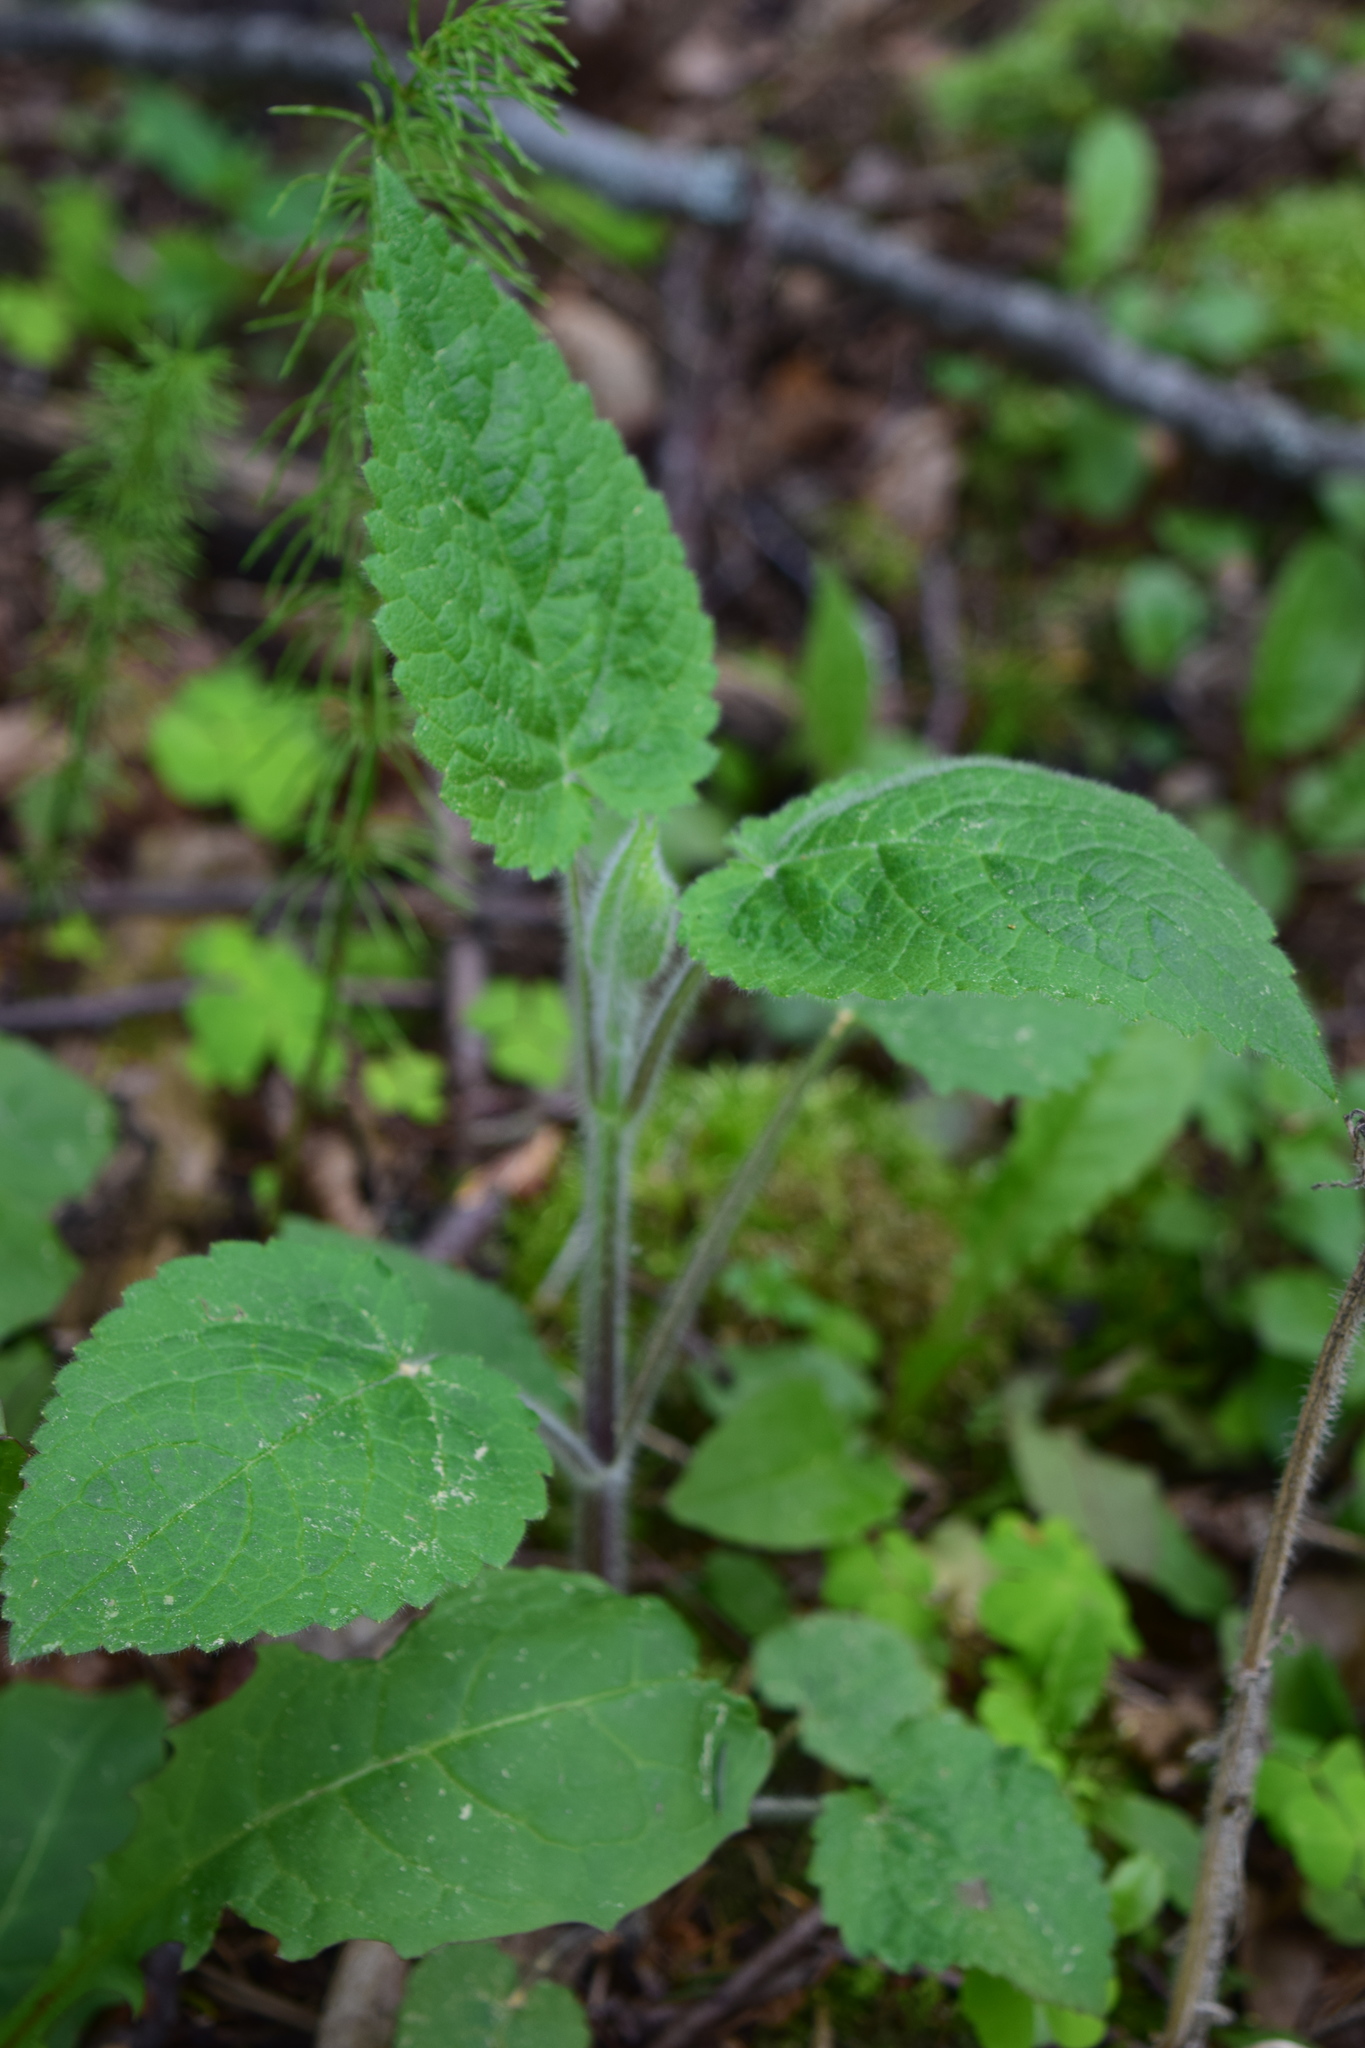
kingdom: Plantae
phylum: Tracheophyta
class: Magnoliopsida
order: Lamiales
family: Lamiaceae
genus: Stachys
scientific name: Stachys sylvatica
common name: Hedge woundwort
